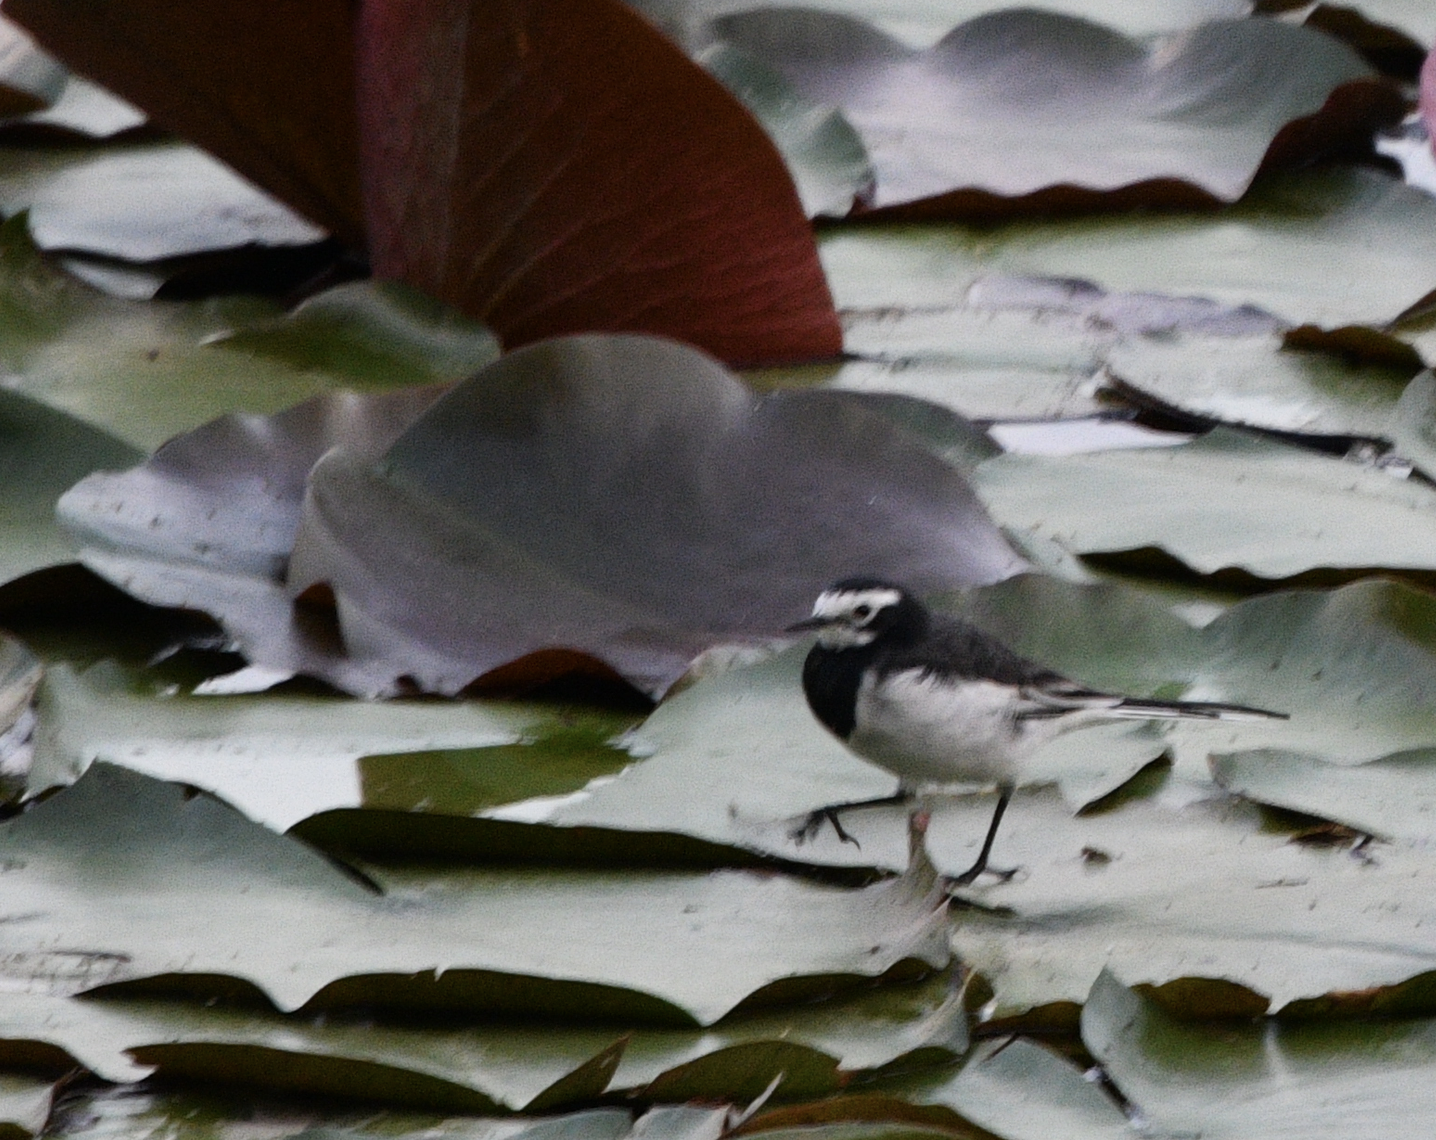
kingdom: Animalia
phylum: Chordata
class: Aves
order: Passeriformes
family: Motacillidae
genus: Motacilla
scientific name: Motacilla alba
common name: White wagtail
